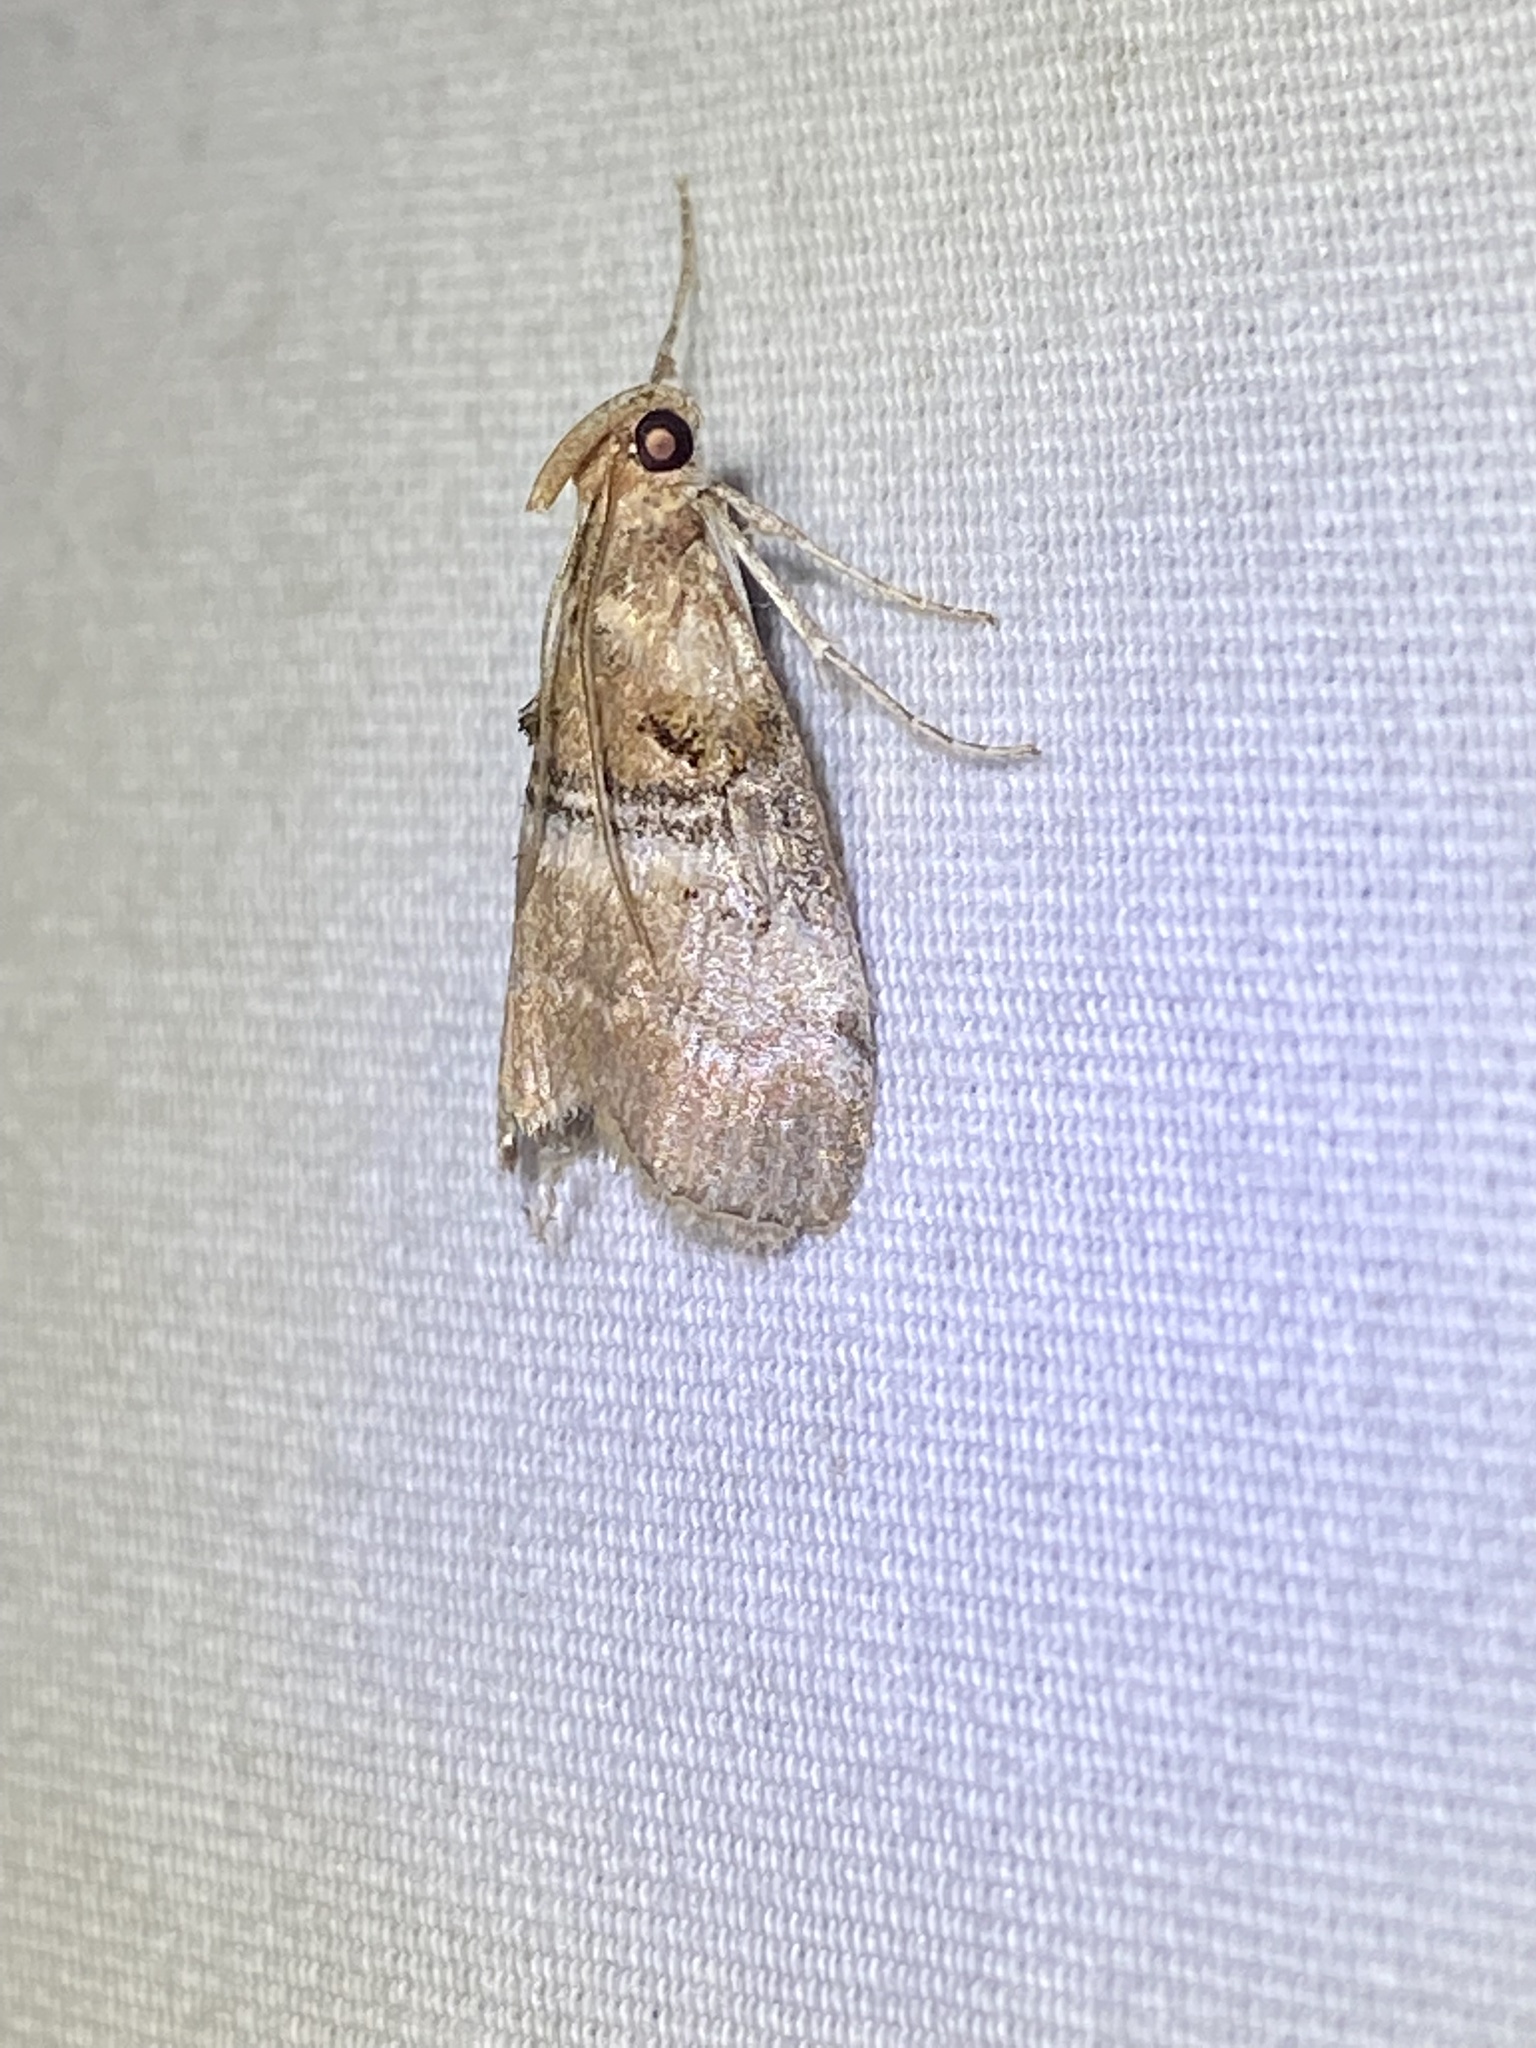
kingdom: Animalia
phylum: Arthropoda
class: Insecta
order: Lepidoptera
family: Pyralidae
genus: Pococera
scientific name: Pococera militella
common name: Sycamore webworm moth
